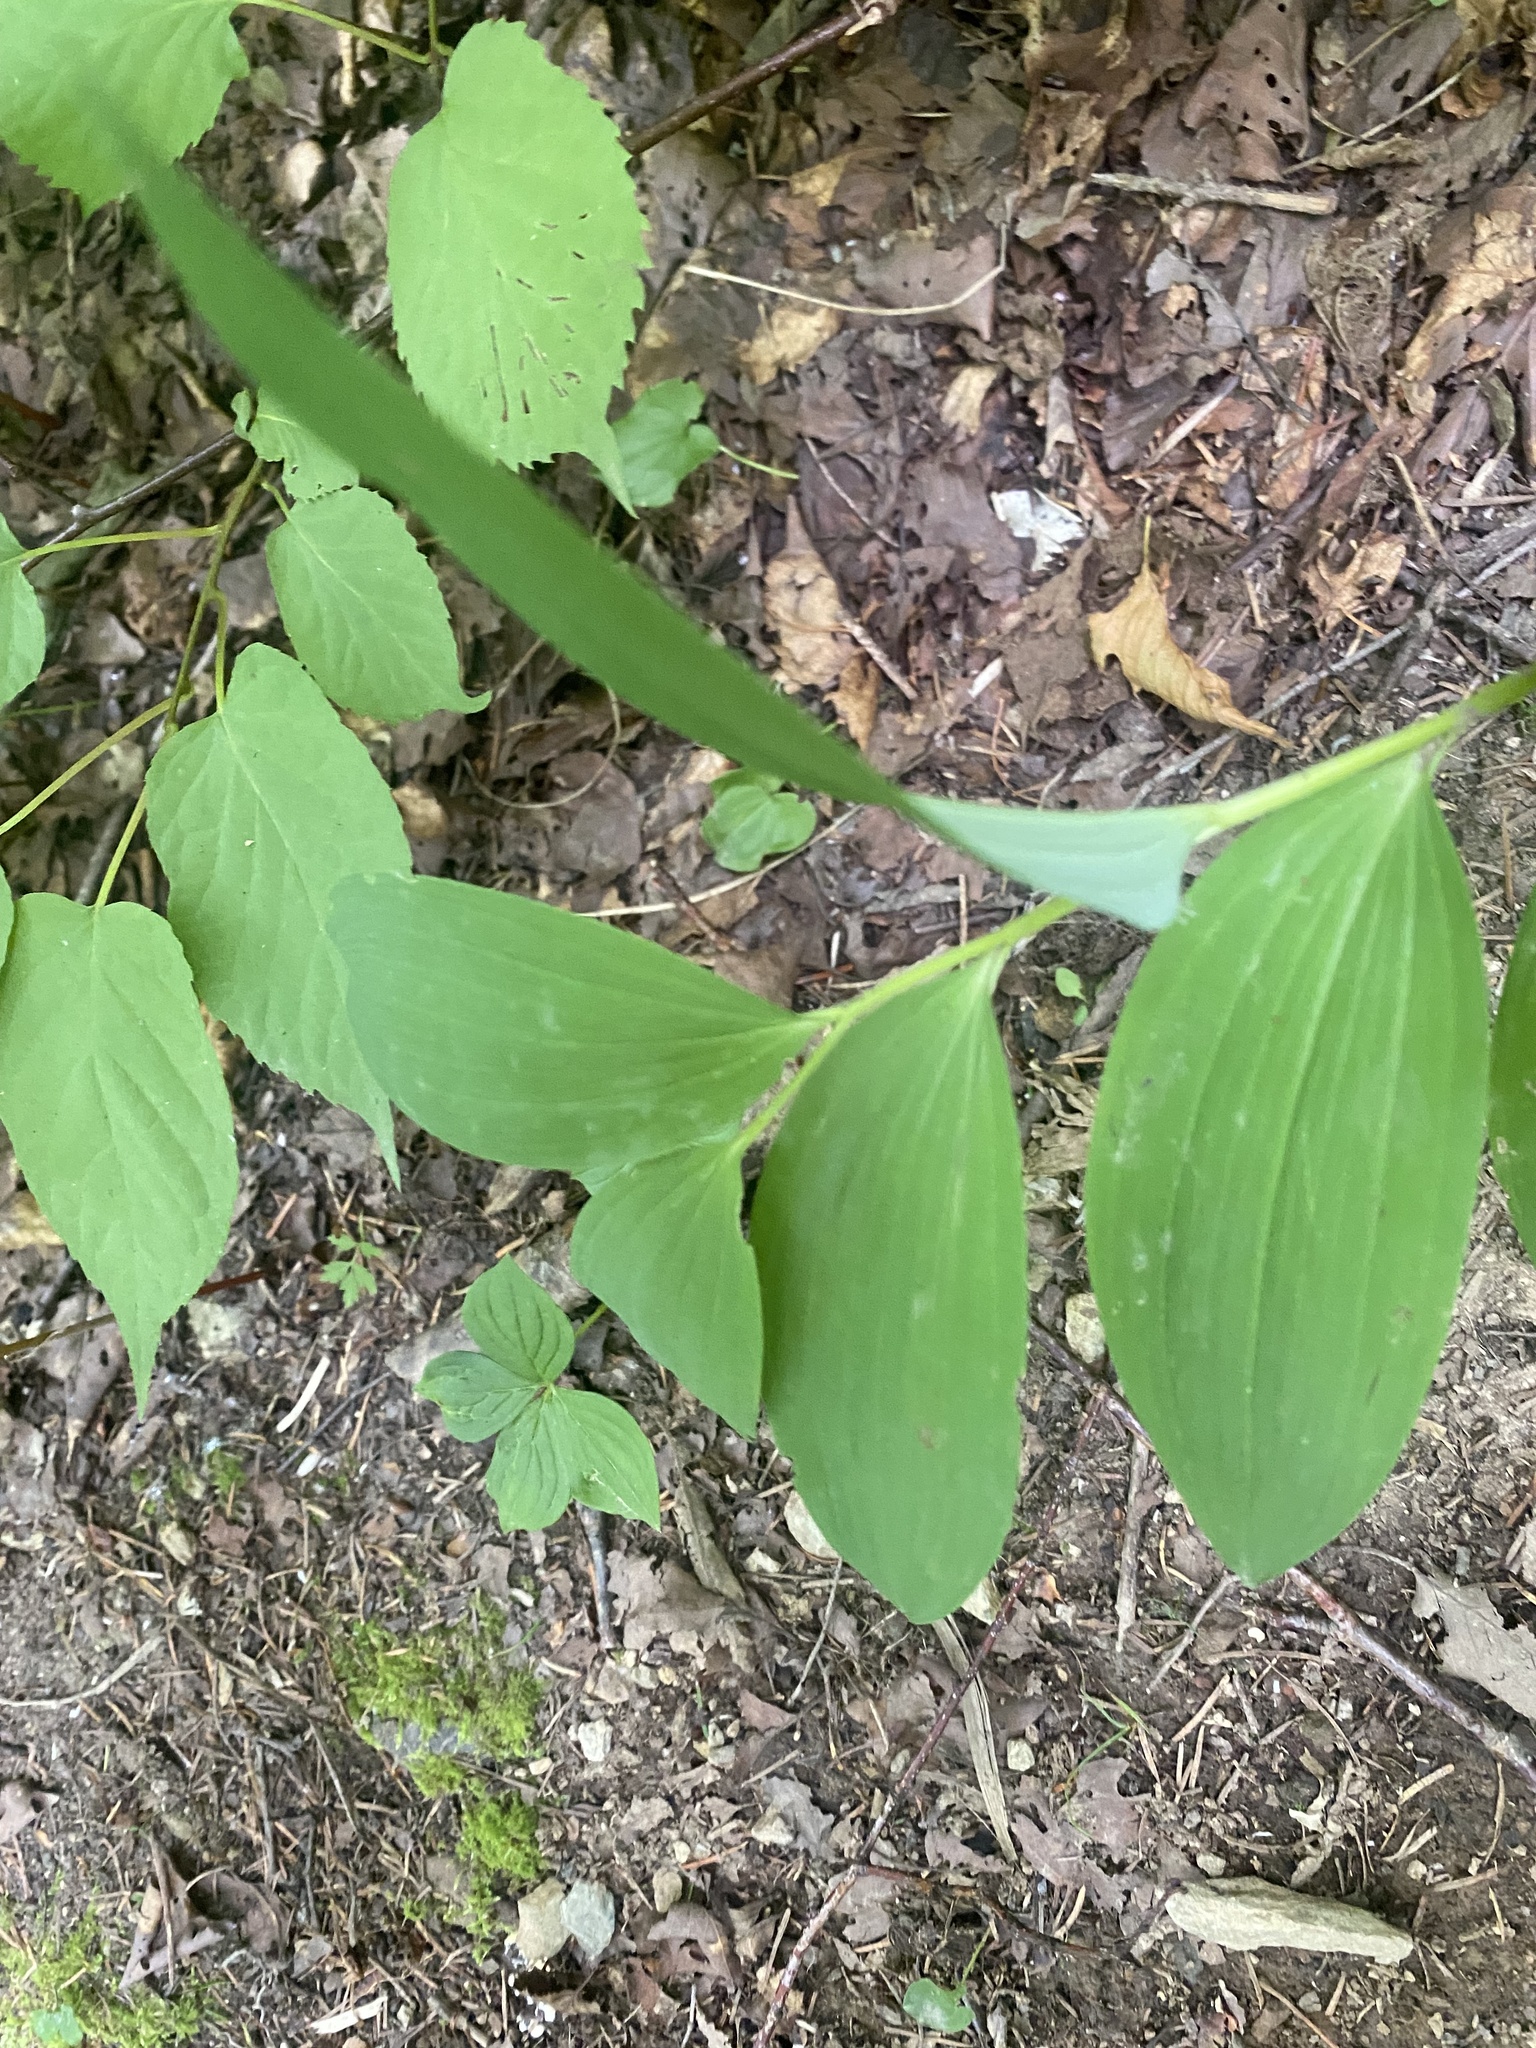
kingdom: Plantae
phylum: Tracheophyta
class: Liliopsida
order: Asparagales
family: Asparagaceae
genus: Polygonatum
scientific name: Polygonatum odoratum
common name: Angular solomon's-seal
